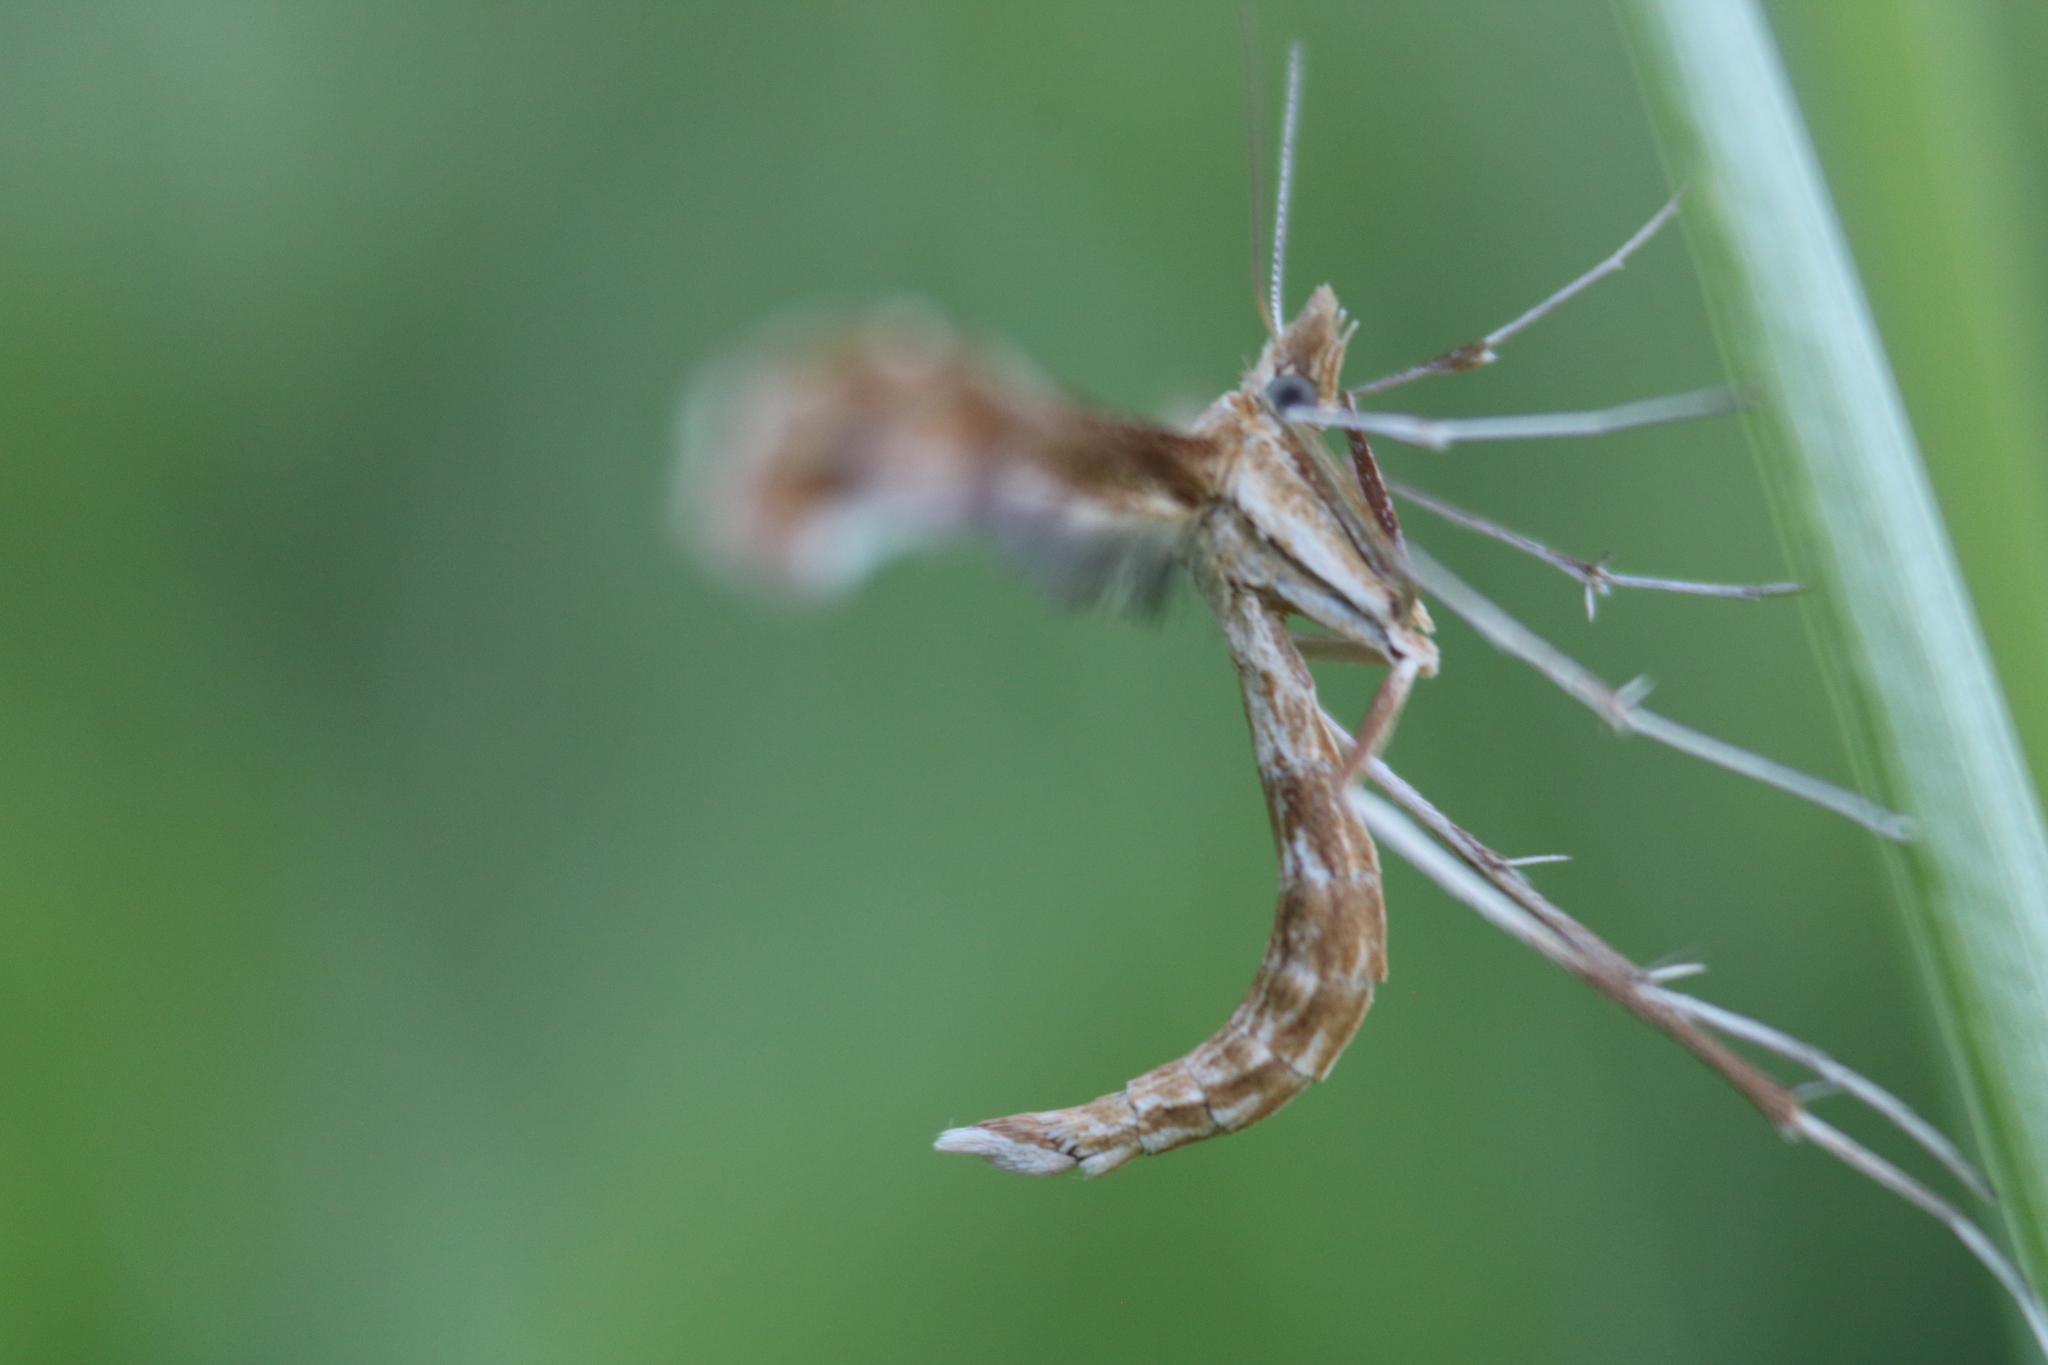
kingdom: Animalia
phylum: Arthropoda
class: Insecta
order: Lepidoptera
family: Pterophoridae
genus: Gillmeria
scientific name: Gillmeria pallidactyla
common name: Yarrow plume
